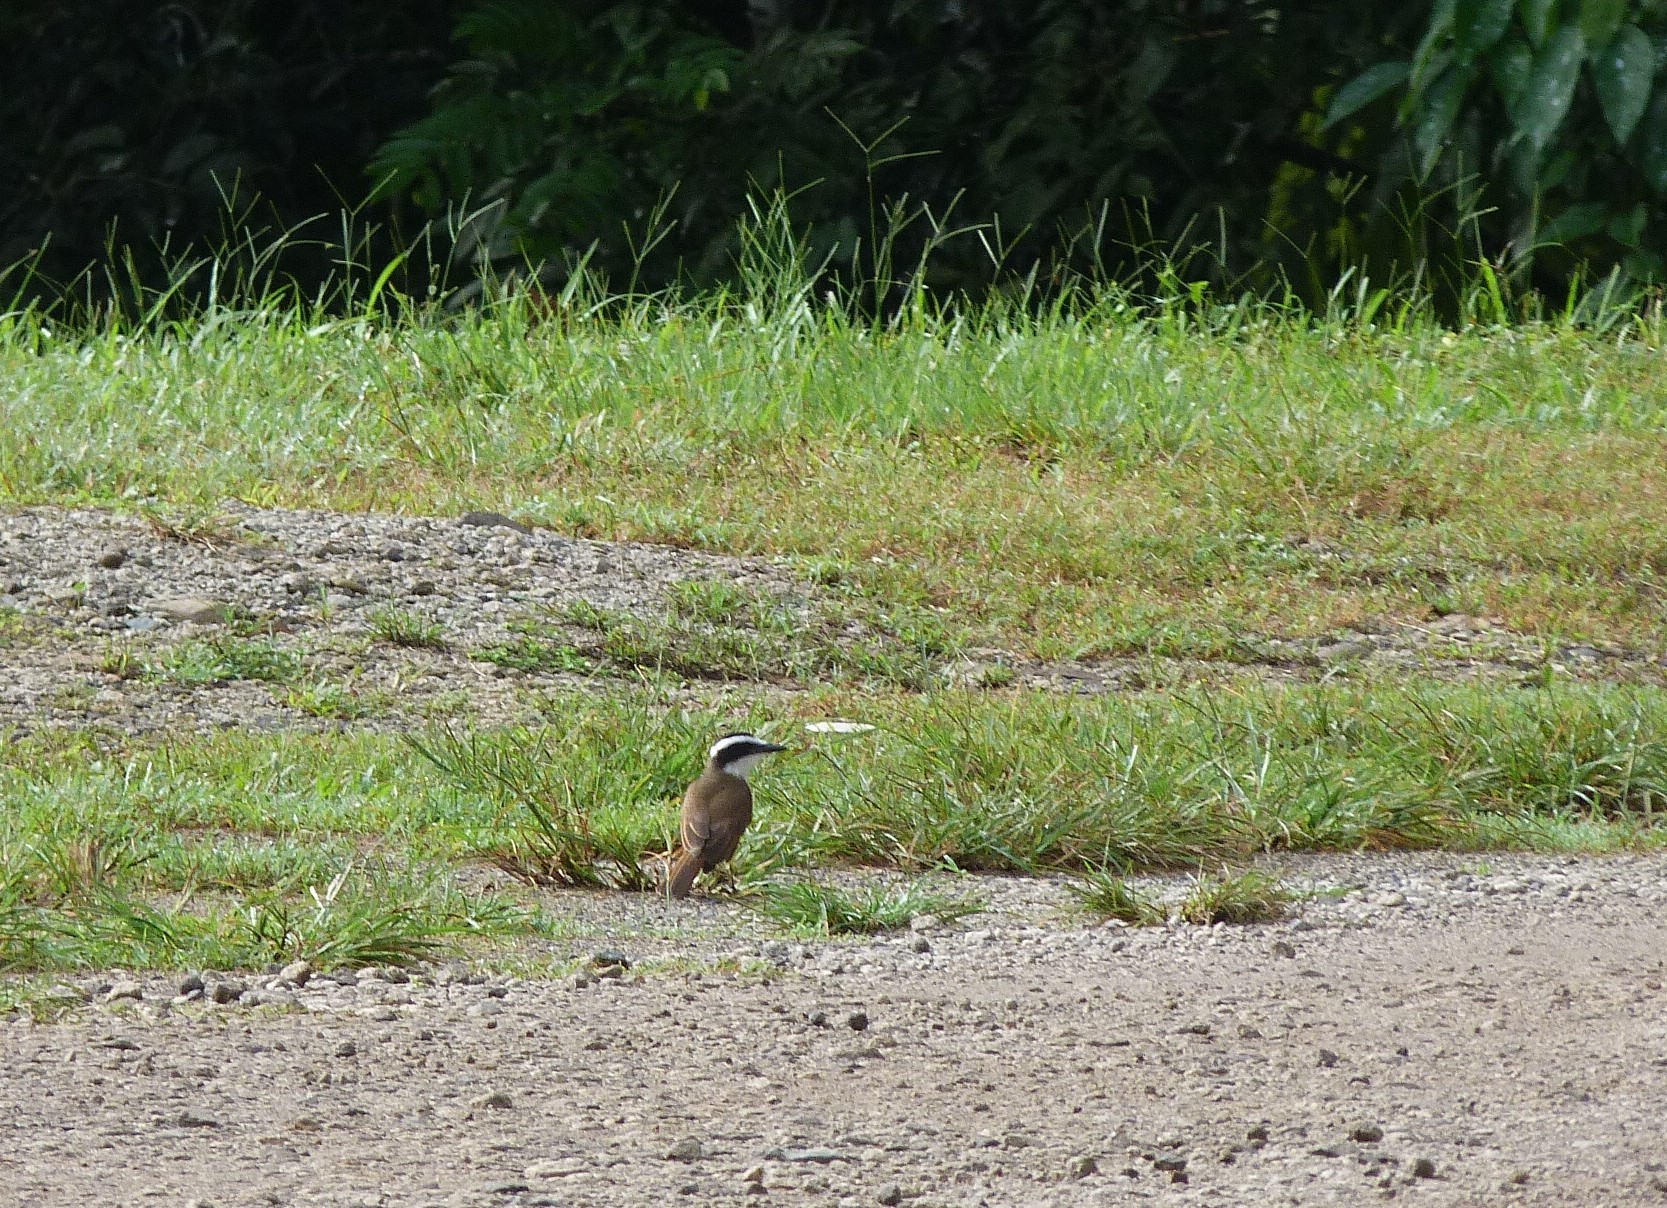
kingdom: Animalia
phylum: Chordata
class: Aves
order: Passeriformes
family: Tyrannidae
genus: Pitangus
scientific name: Pitangus sulphuratus
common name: Great kiskadee
